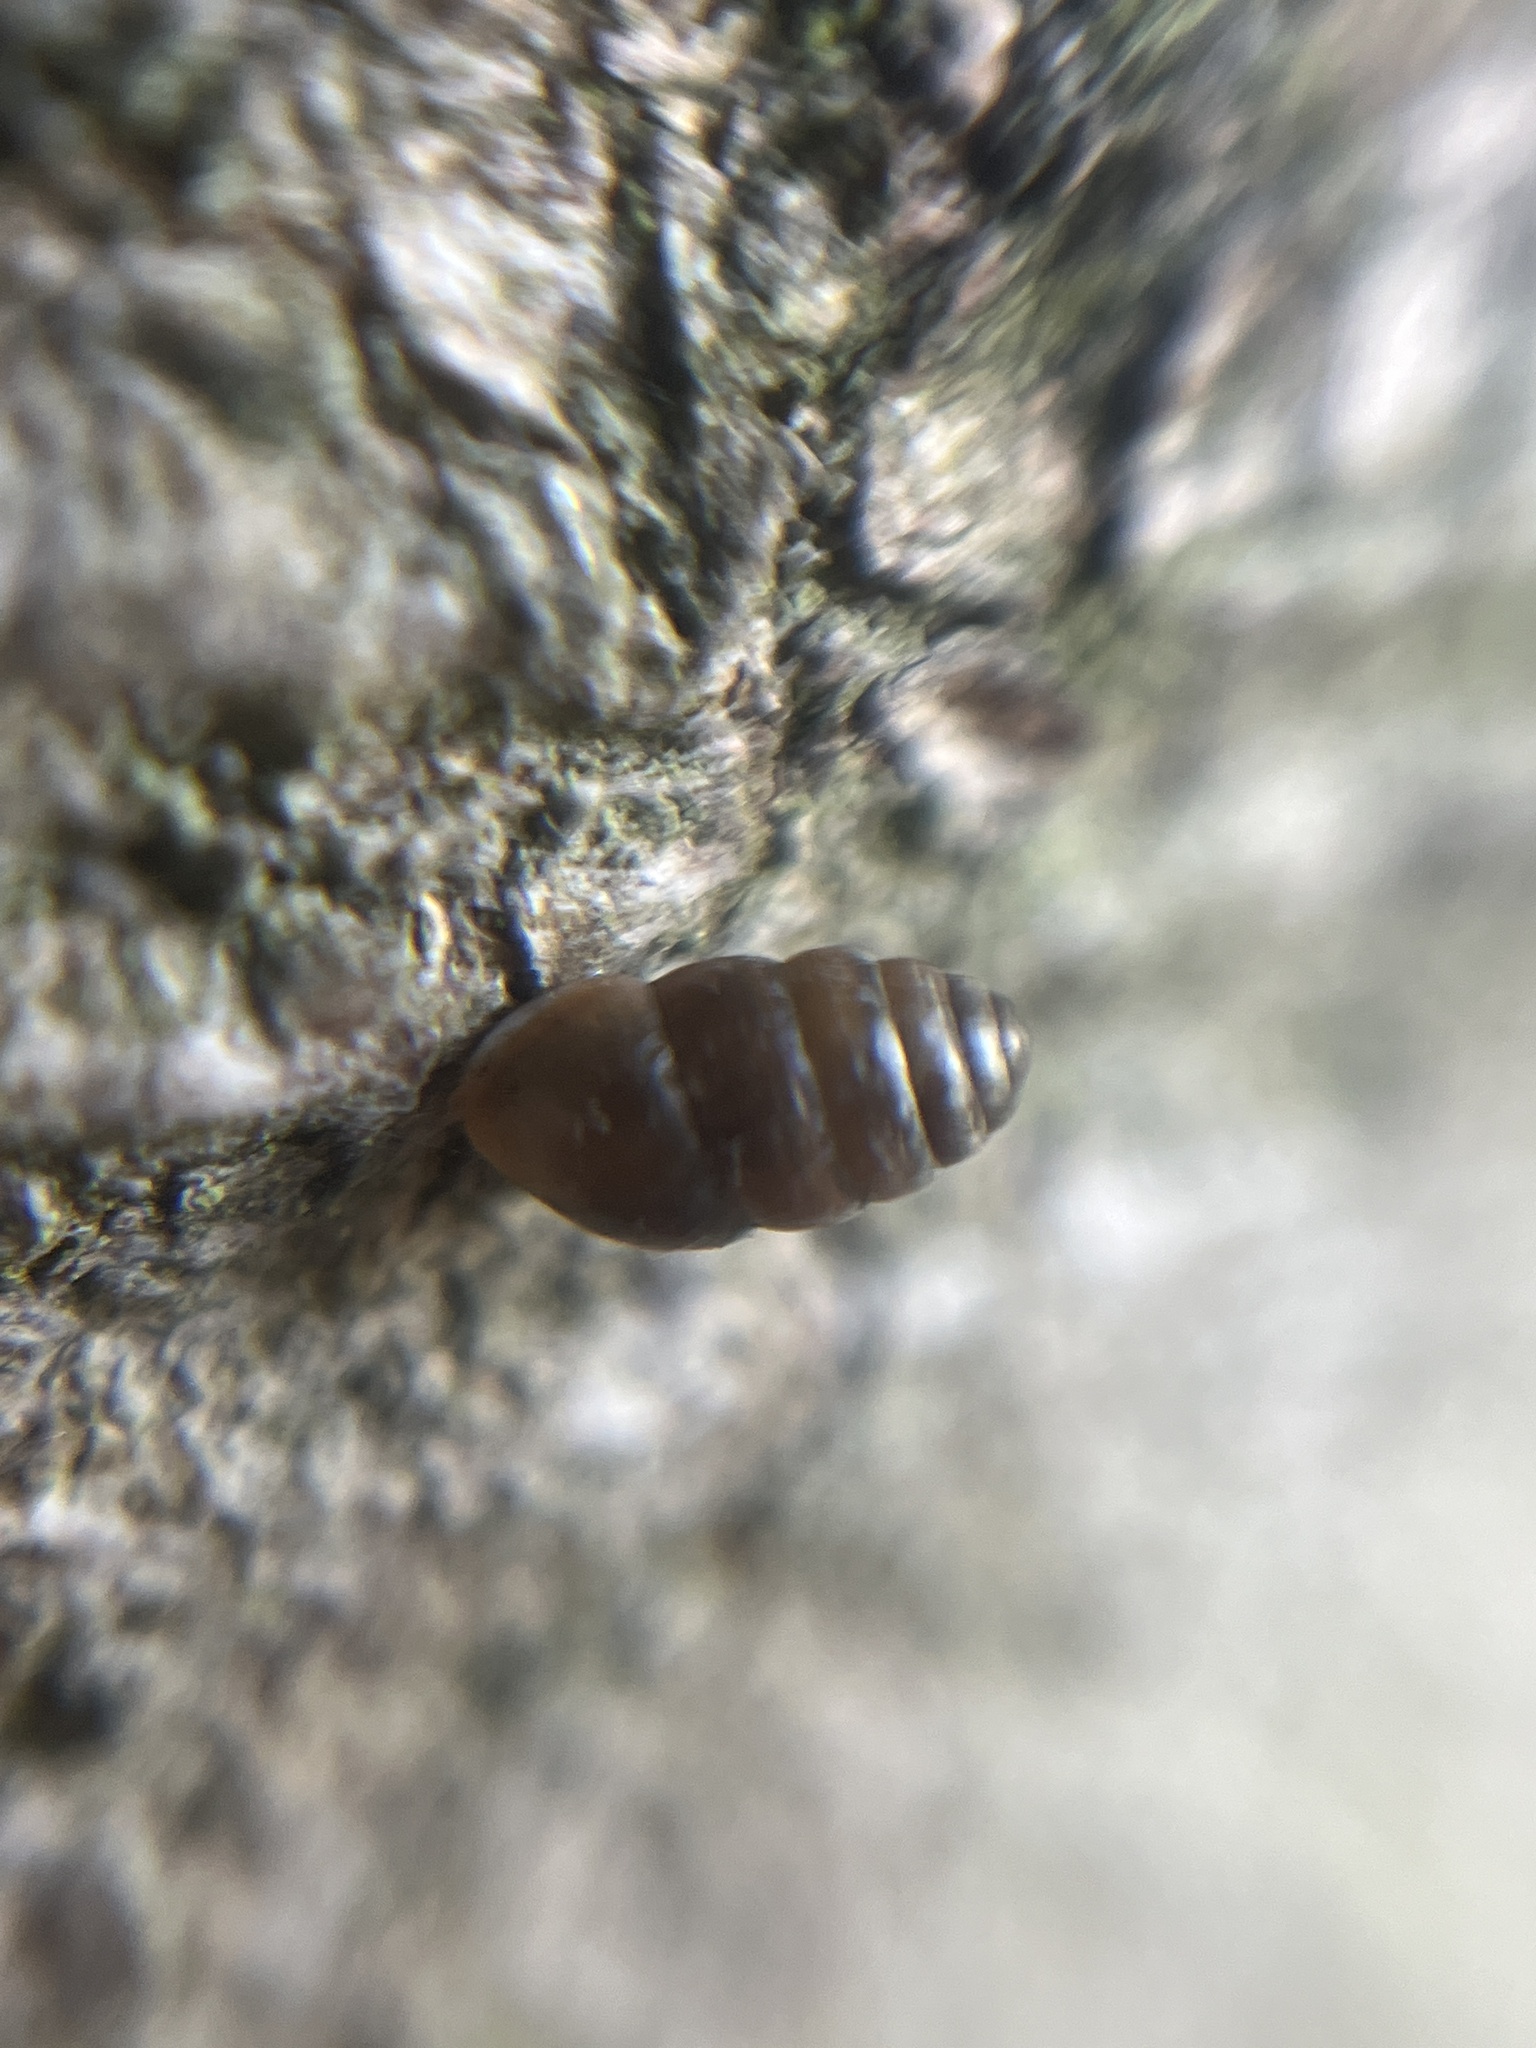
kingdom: Animalia
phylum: Mollusca
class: Gastropoda
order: Stylommatophora
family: Lauriidae
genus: Lauria
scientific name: Lauria cylindracea
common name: Common chrysalis snail
